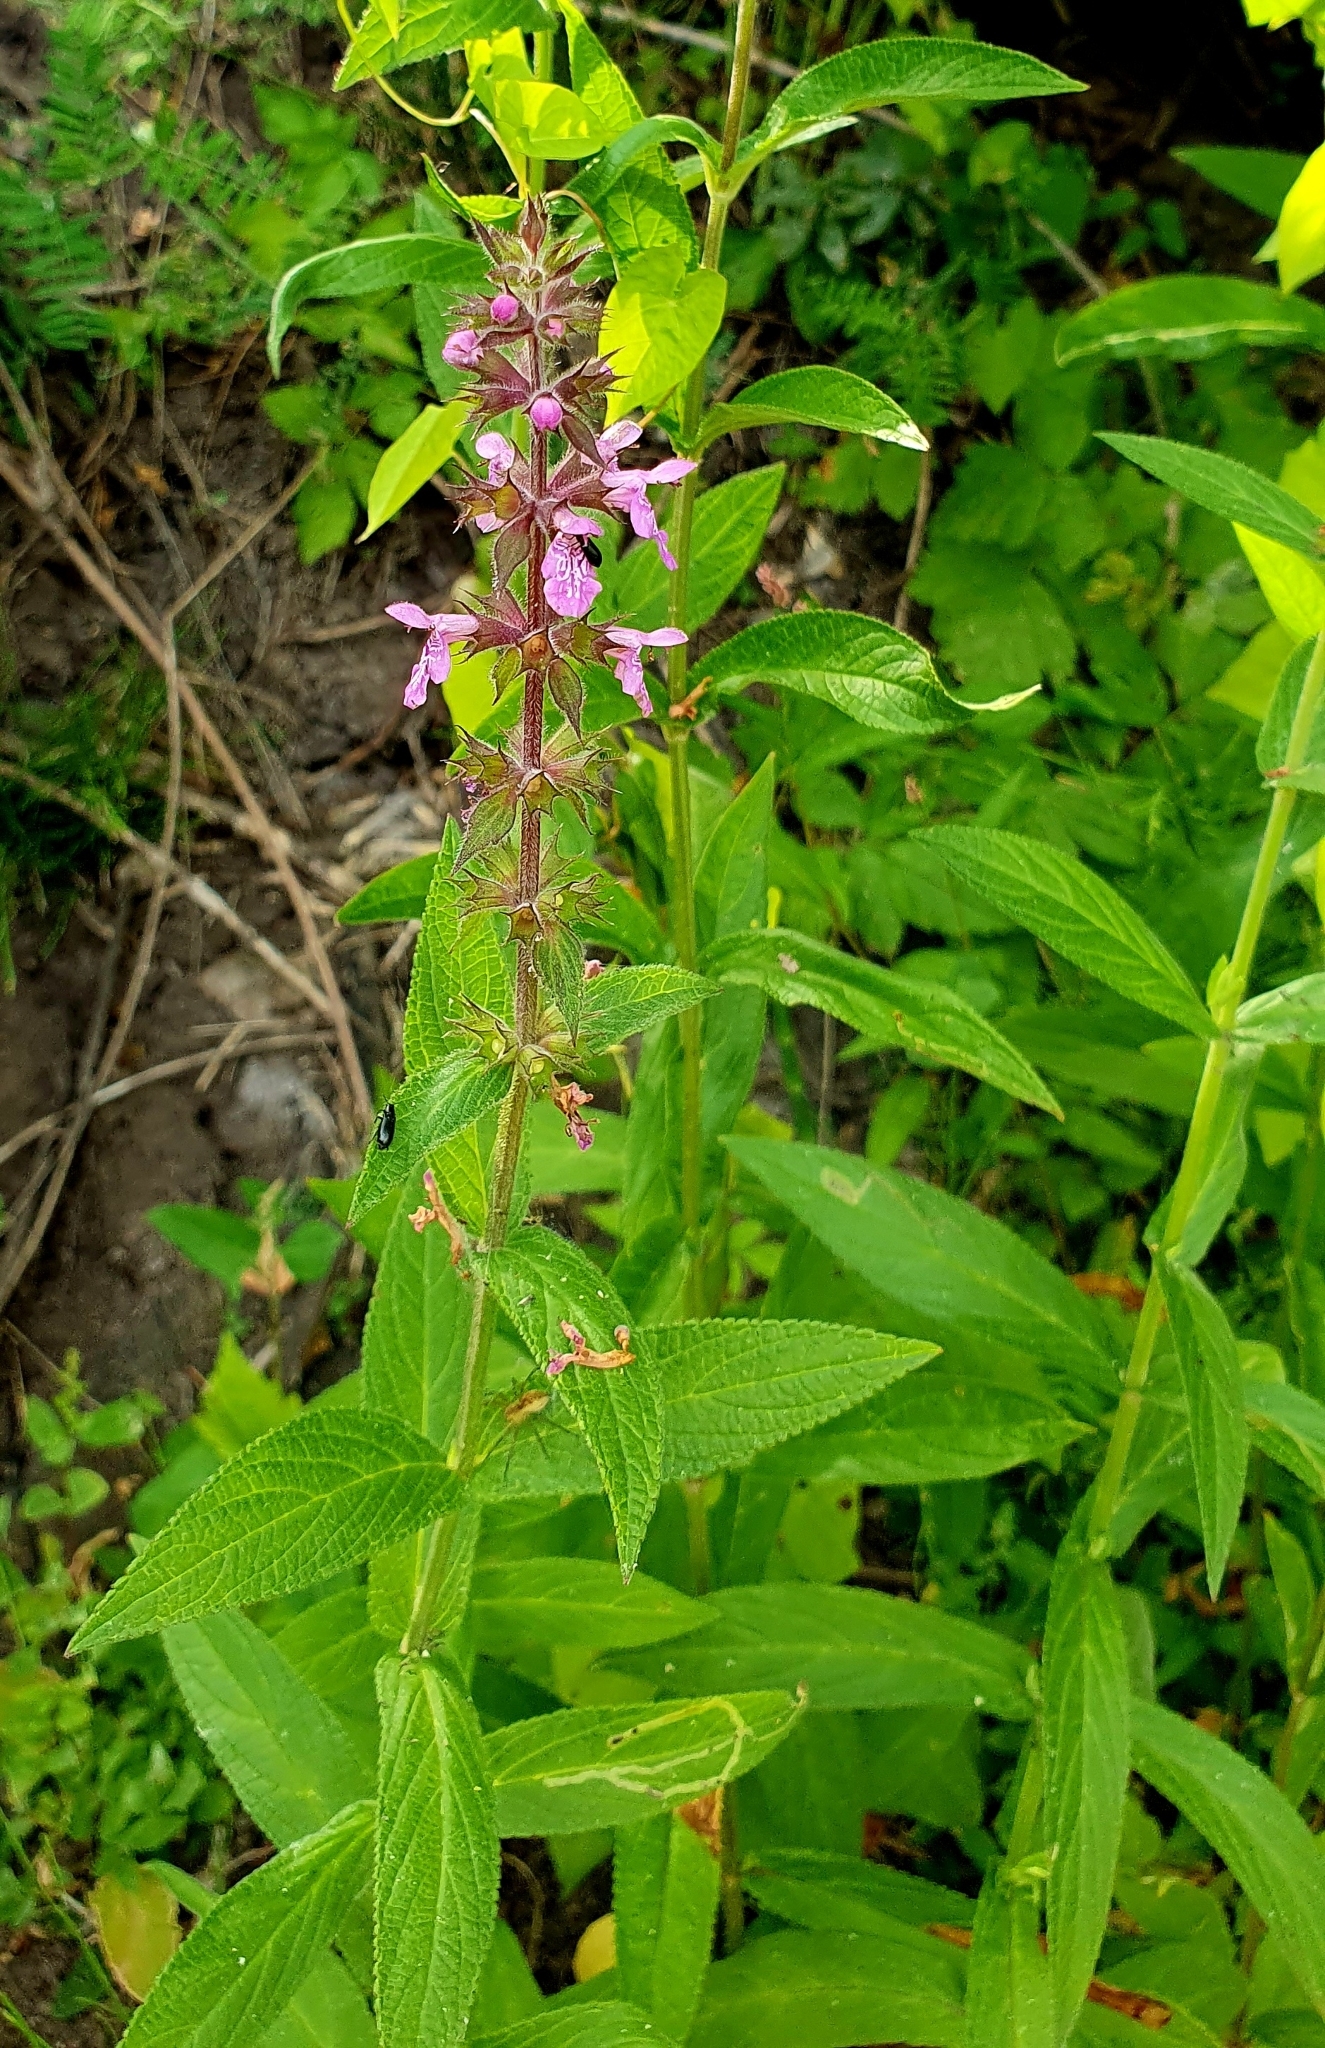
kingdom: Plantae
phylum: Tracheophyta
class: Magnoliopsida
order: Lamiales
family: Lamiaceae
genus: Stachys
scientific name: Stachys palustris
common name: Marsh woundwort
